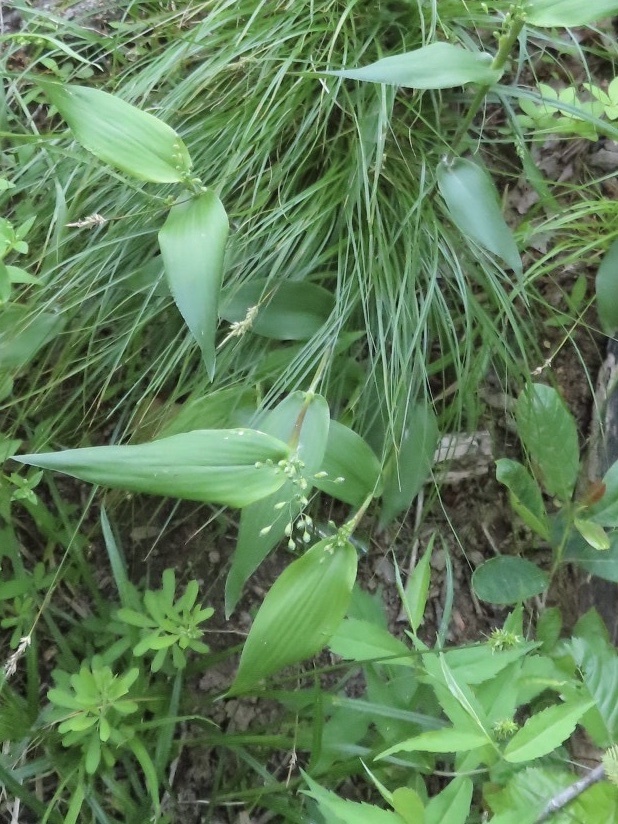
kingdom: Plantae
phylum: Tracheophyta
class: Liliopsida
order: Poales
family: Poaceae
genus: Dichanthelium
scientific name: Dichanthelium boscii
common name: Bosc's panic grass
